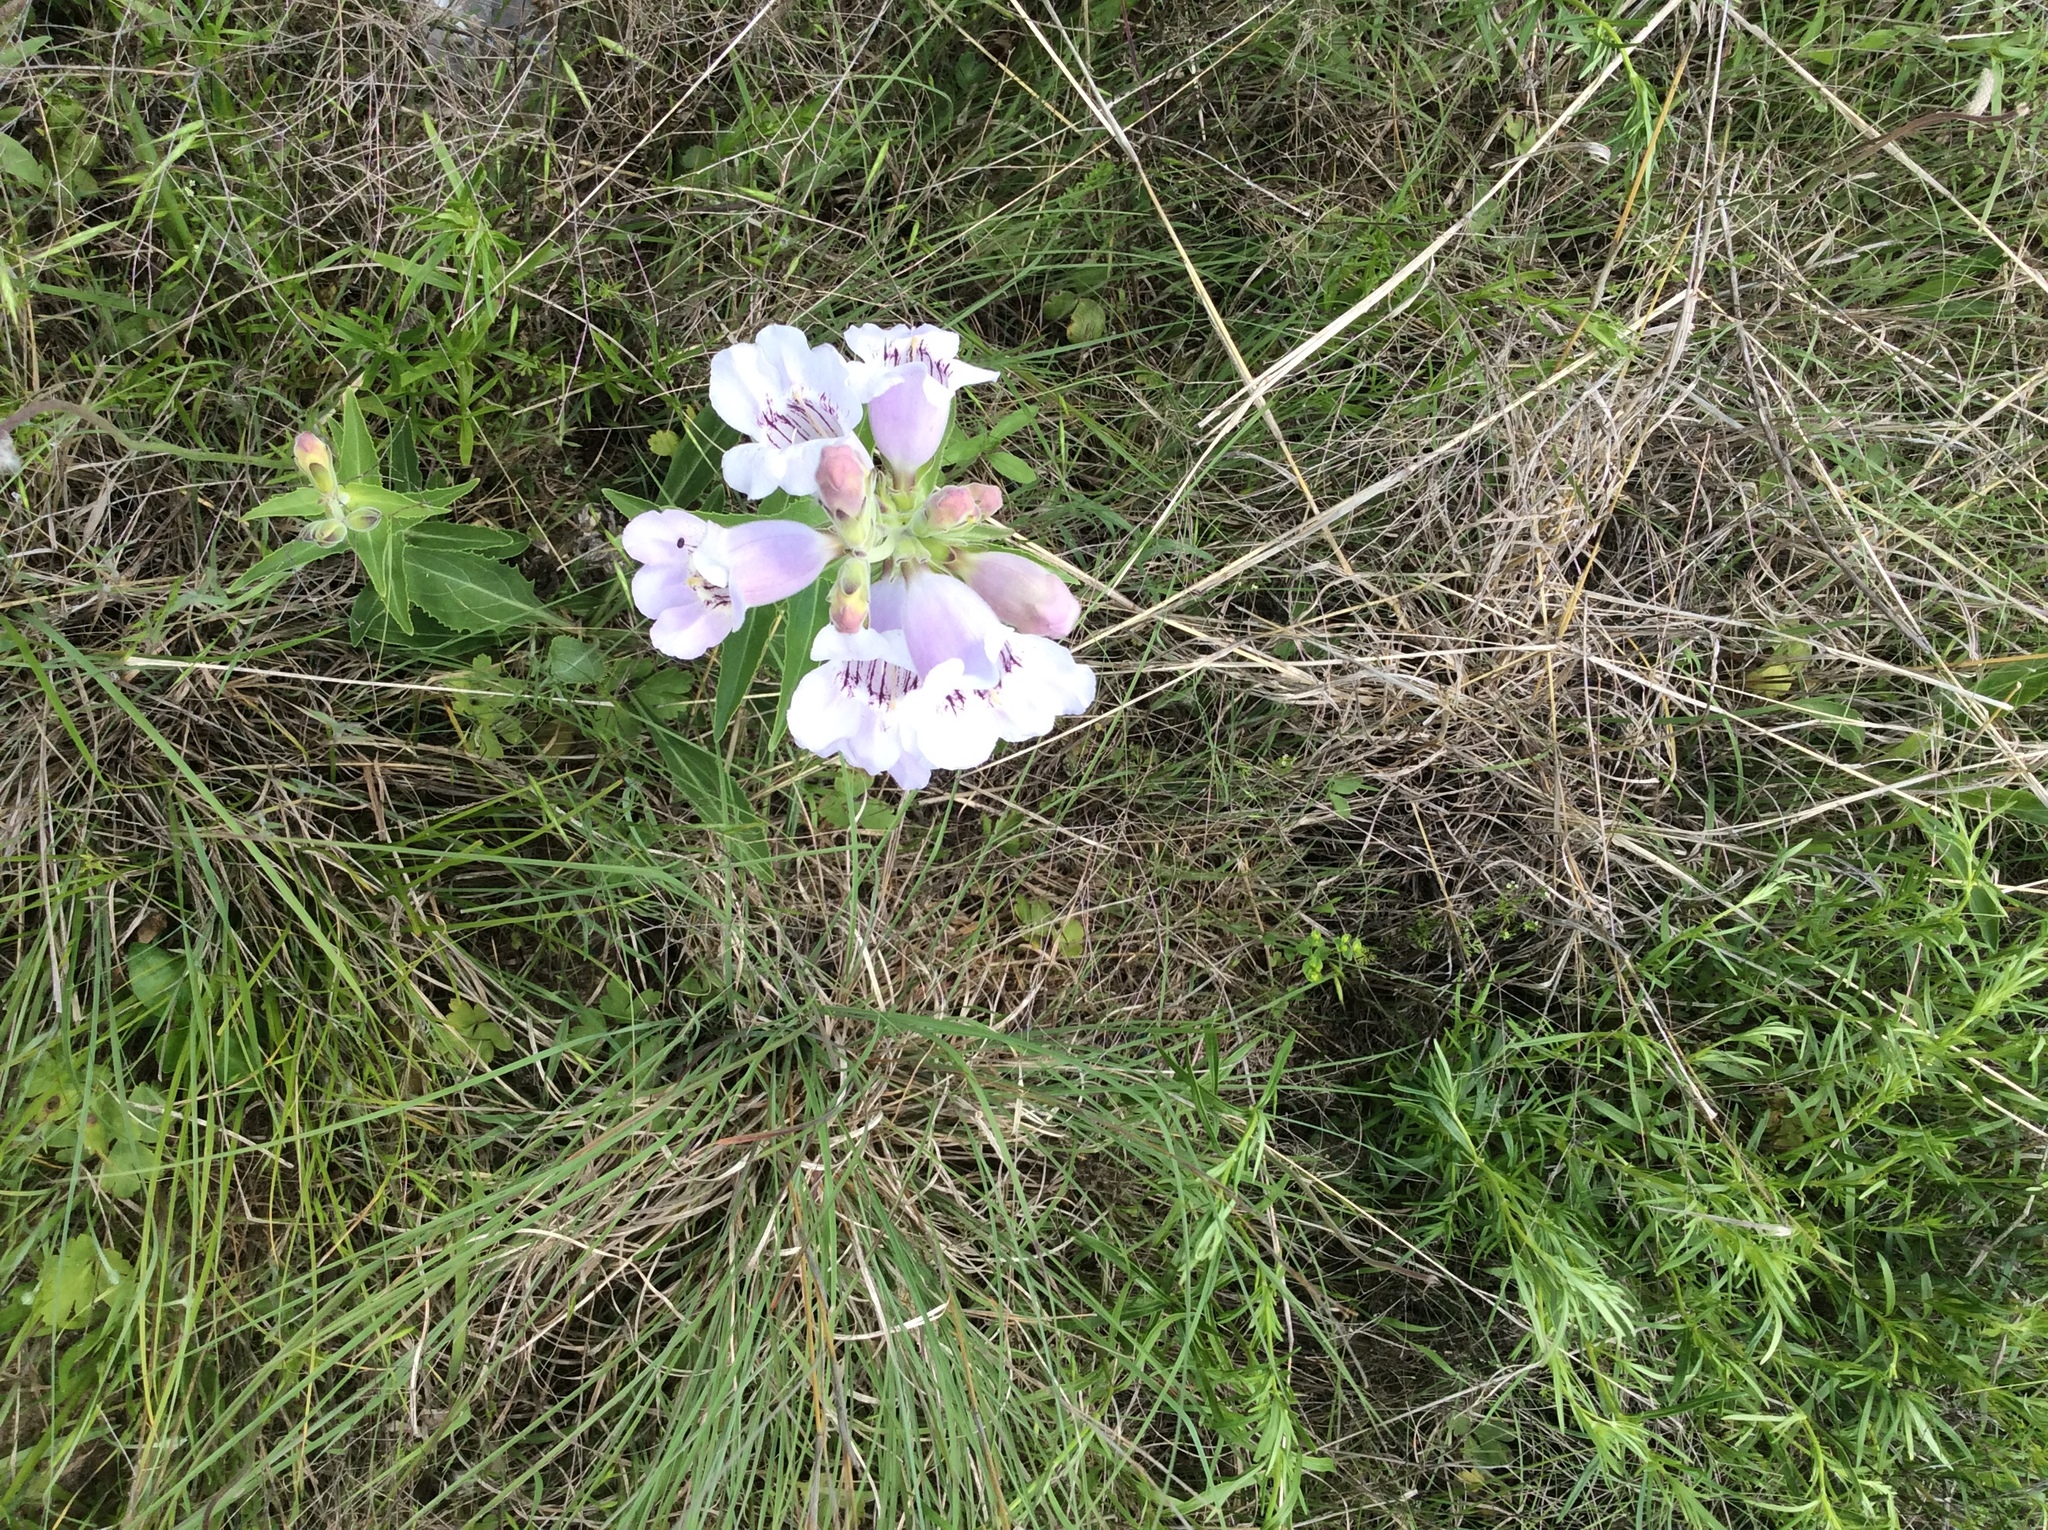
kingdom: Plantae
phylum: Tracheophyta
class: Magnoliopsida
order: Lamiales
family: Plantaginaceae
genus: Penstemon
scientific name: Penstemon cobaea
